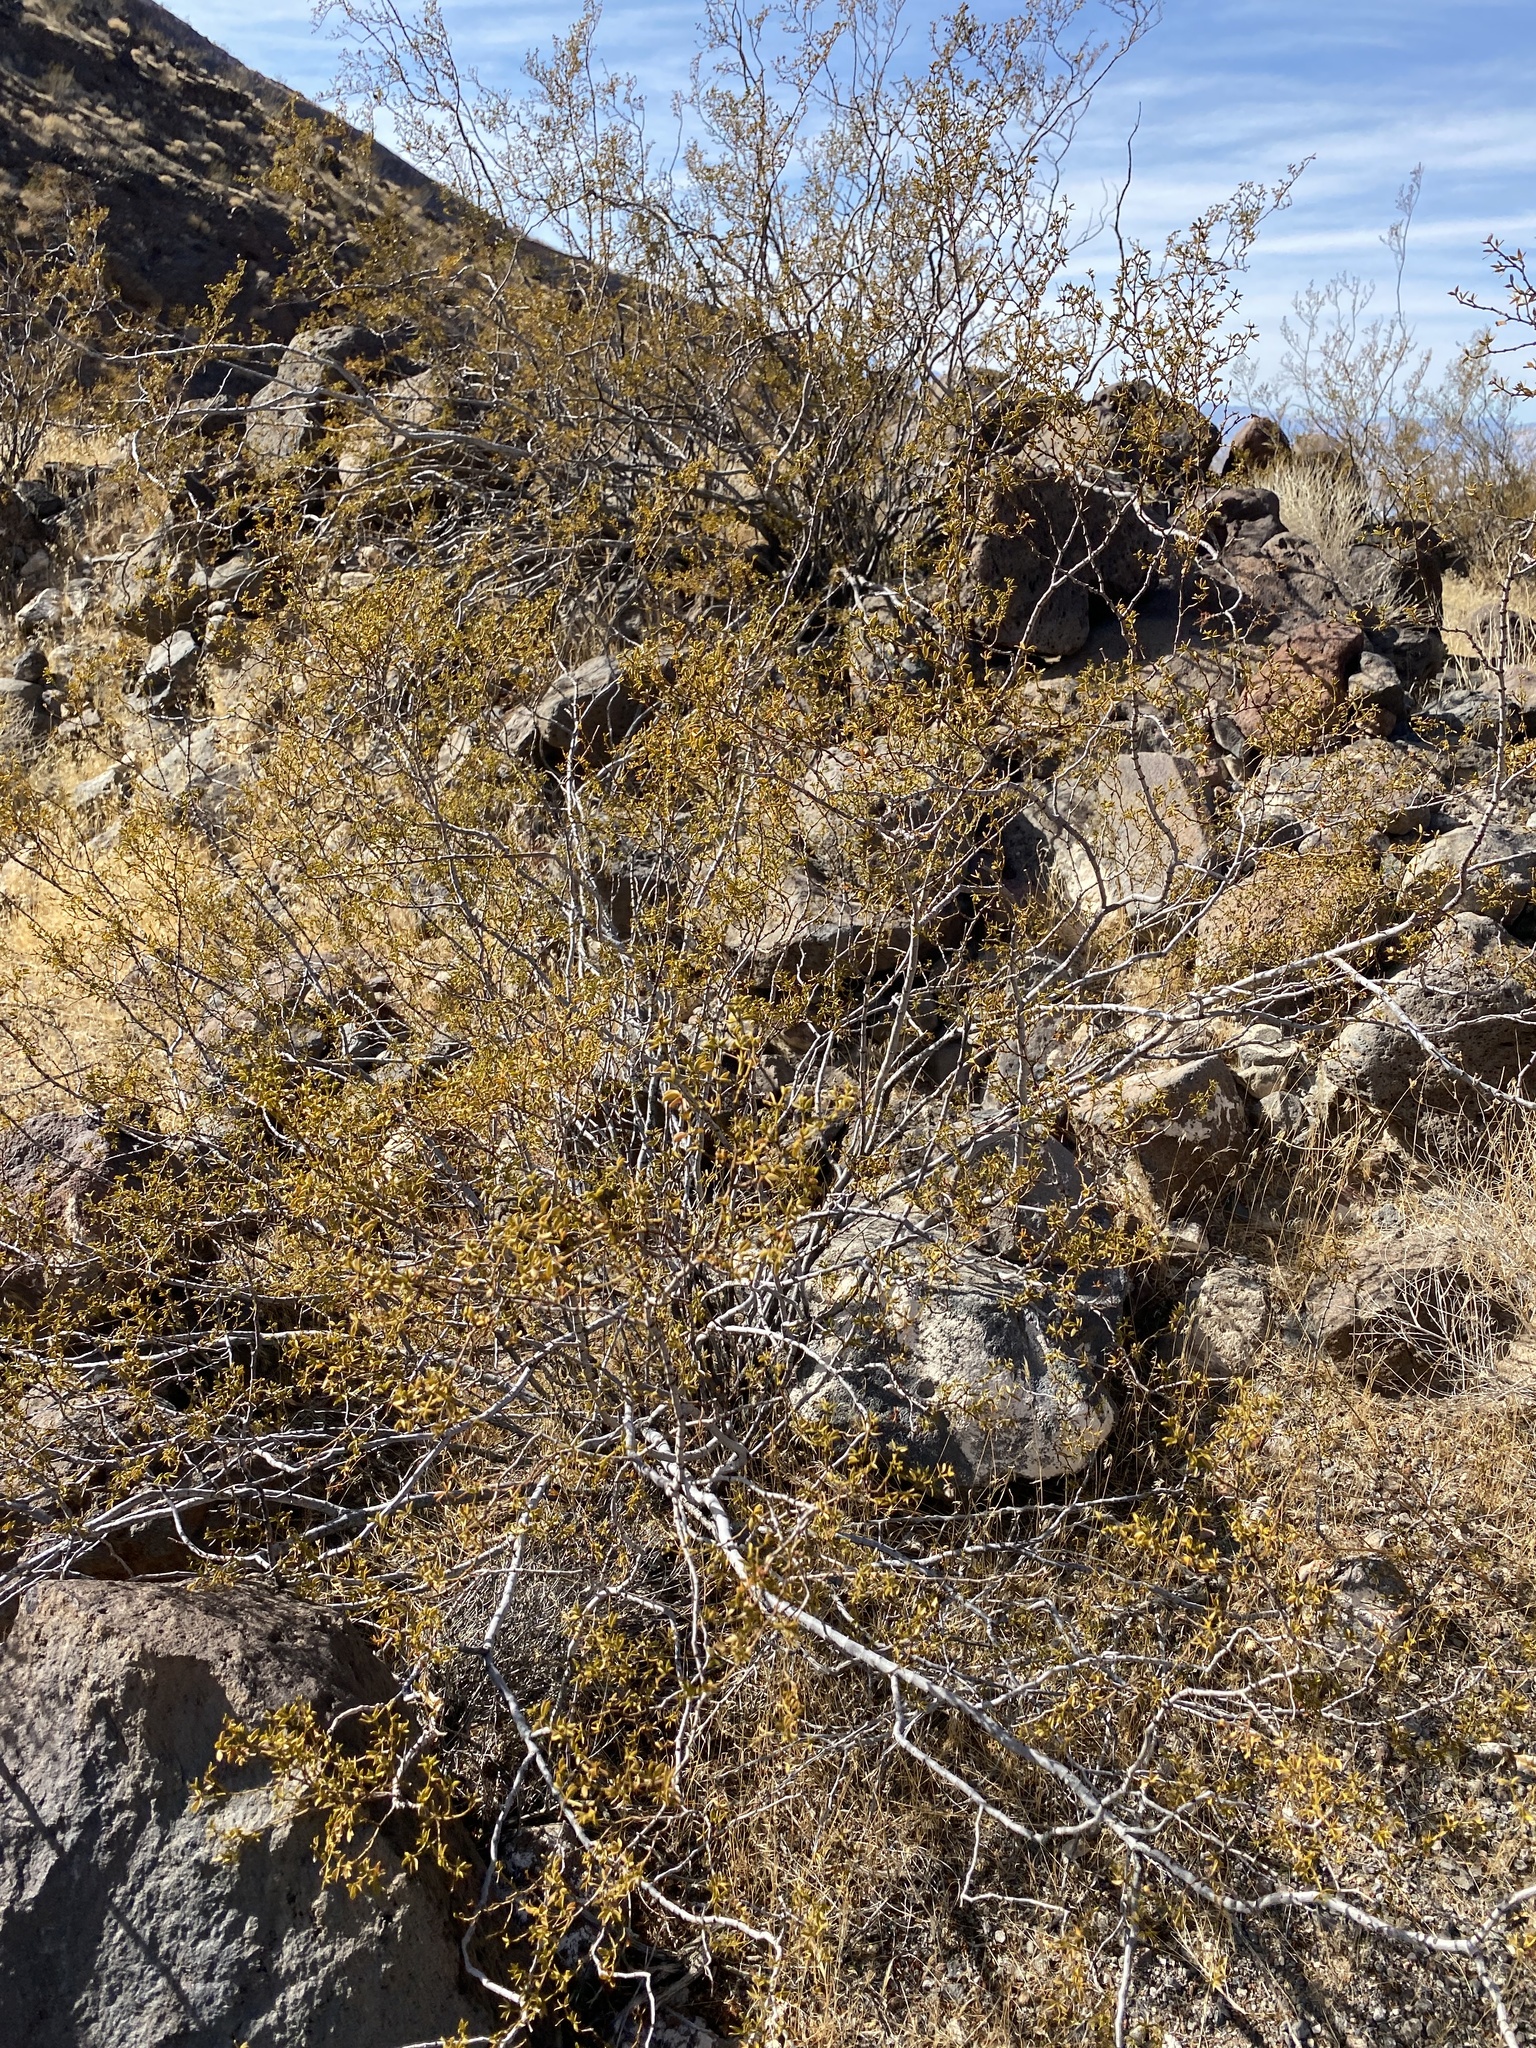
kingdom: Plantae
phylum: Tracheophyta
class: Magnoliopsida
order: Zygophyllales
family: Zygophyllaceae
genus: Larrea
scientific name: Larrea tridentata
